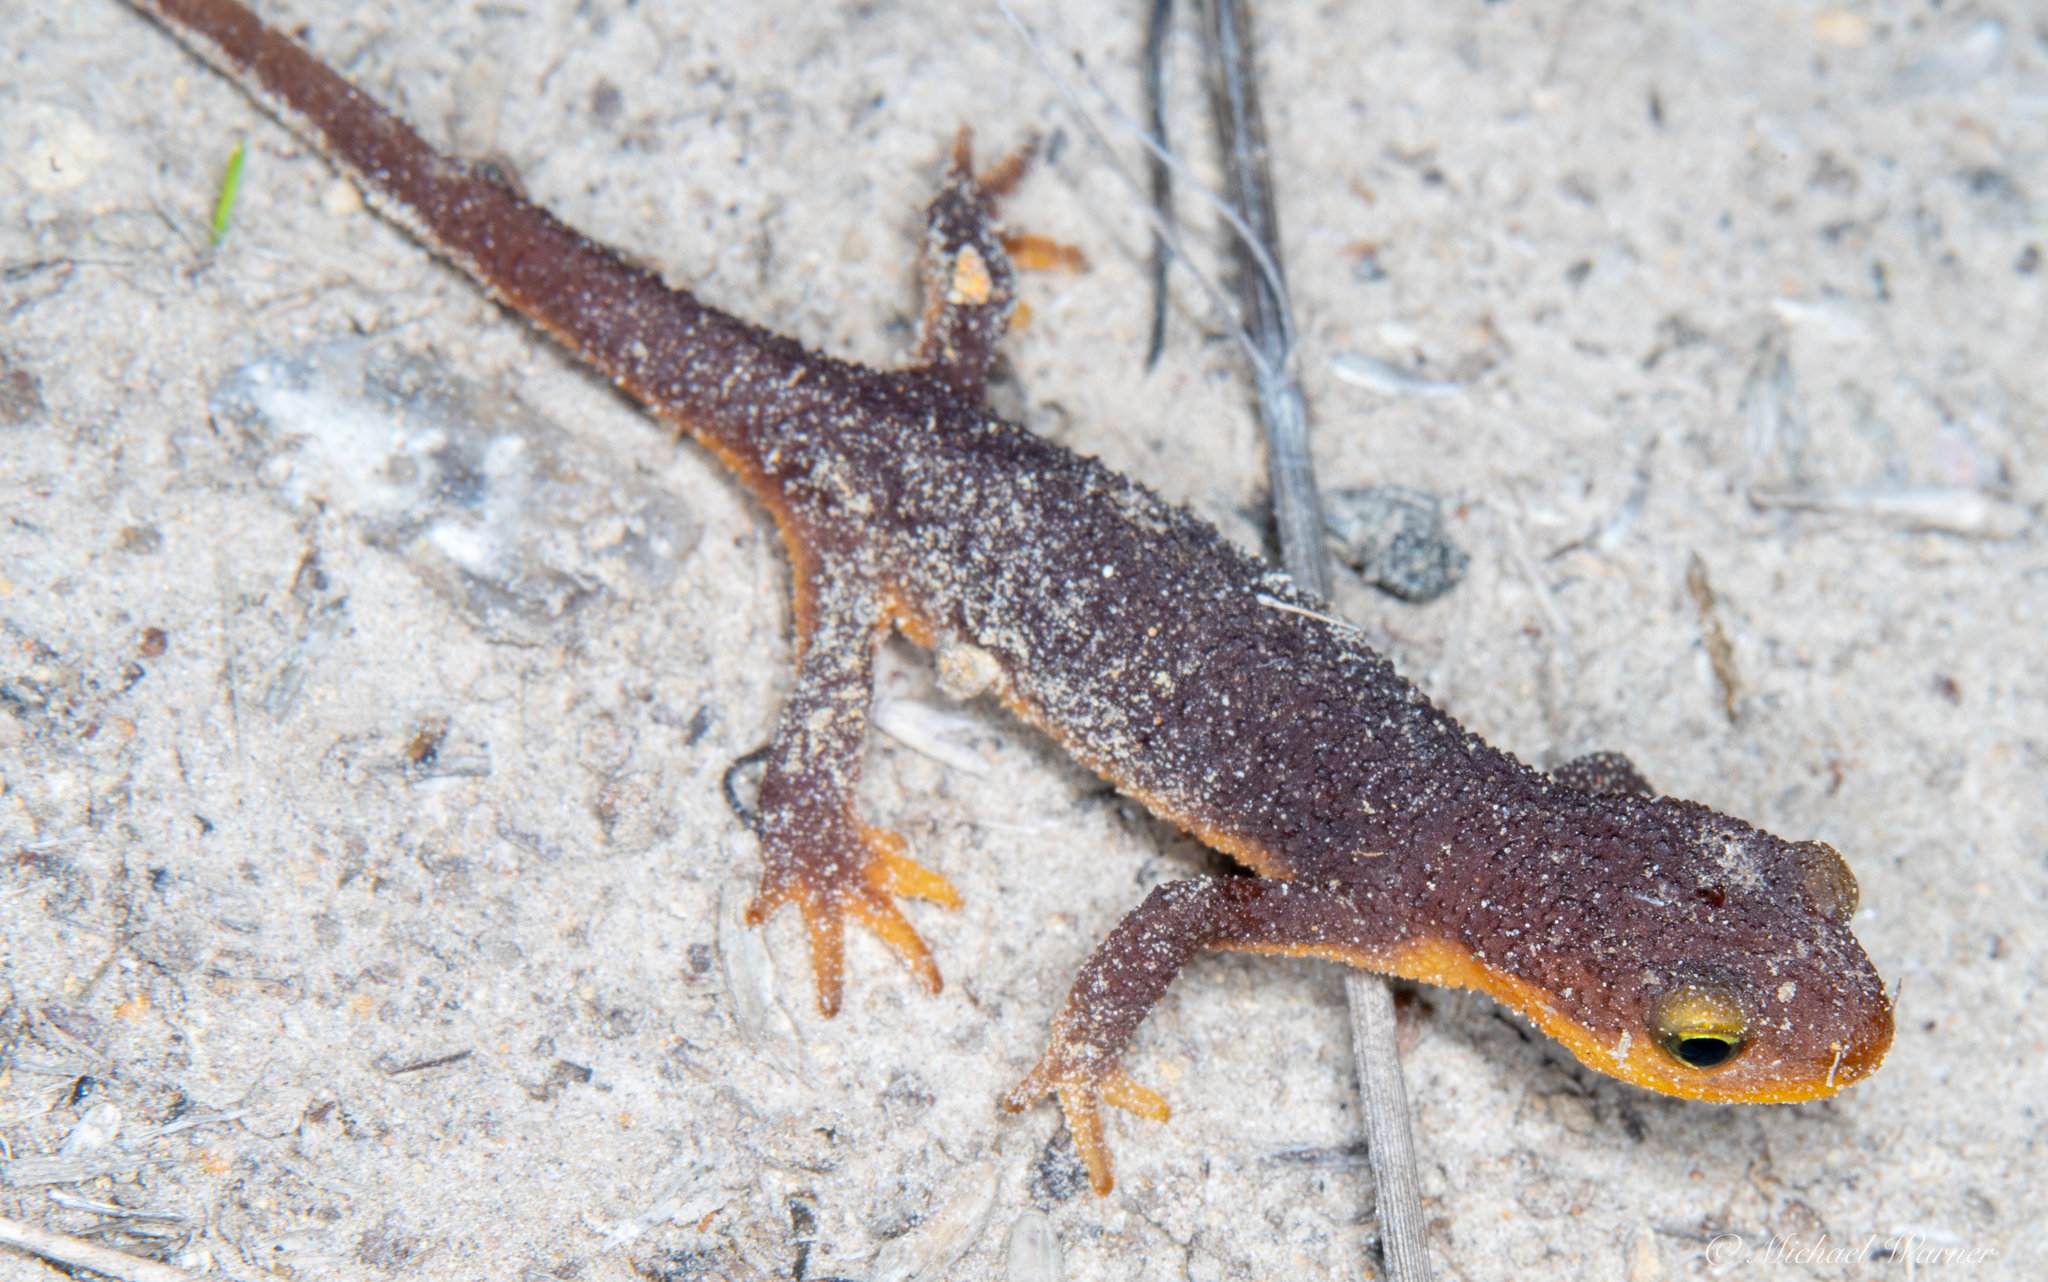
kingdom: Animalia
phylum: Chordata
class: Amphibia
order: Caudata
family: Salamandridae
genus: Taricha
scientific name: Taricha torosa
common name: California newt
